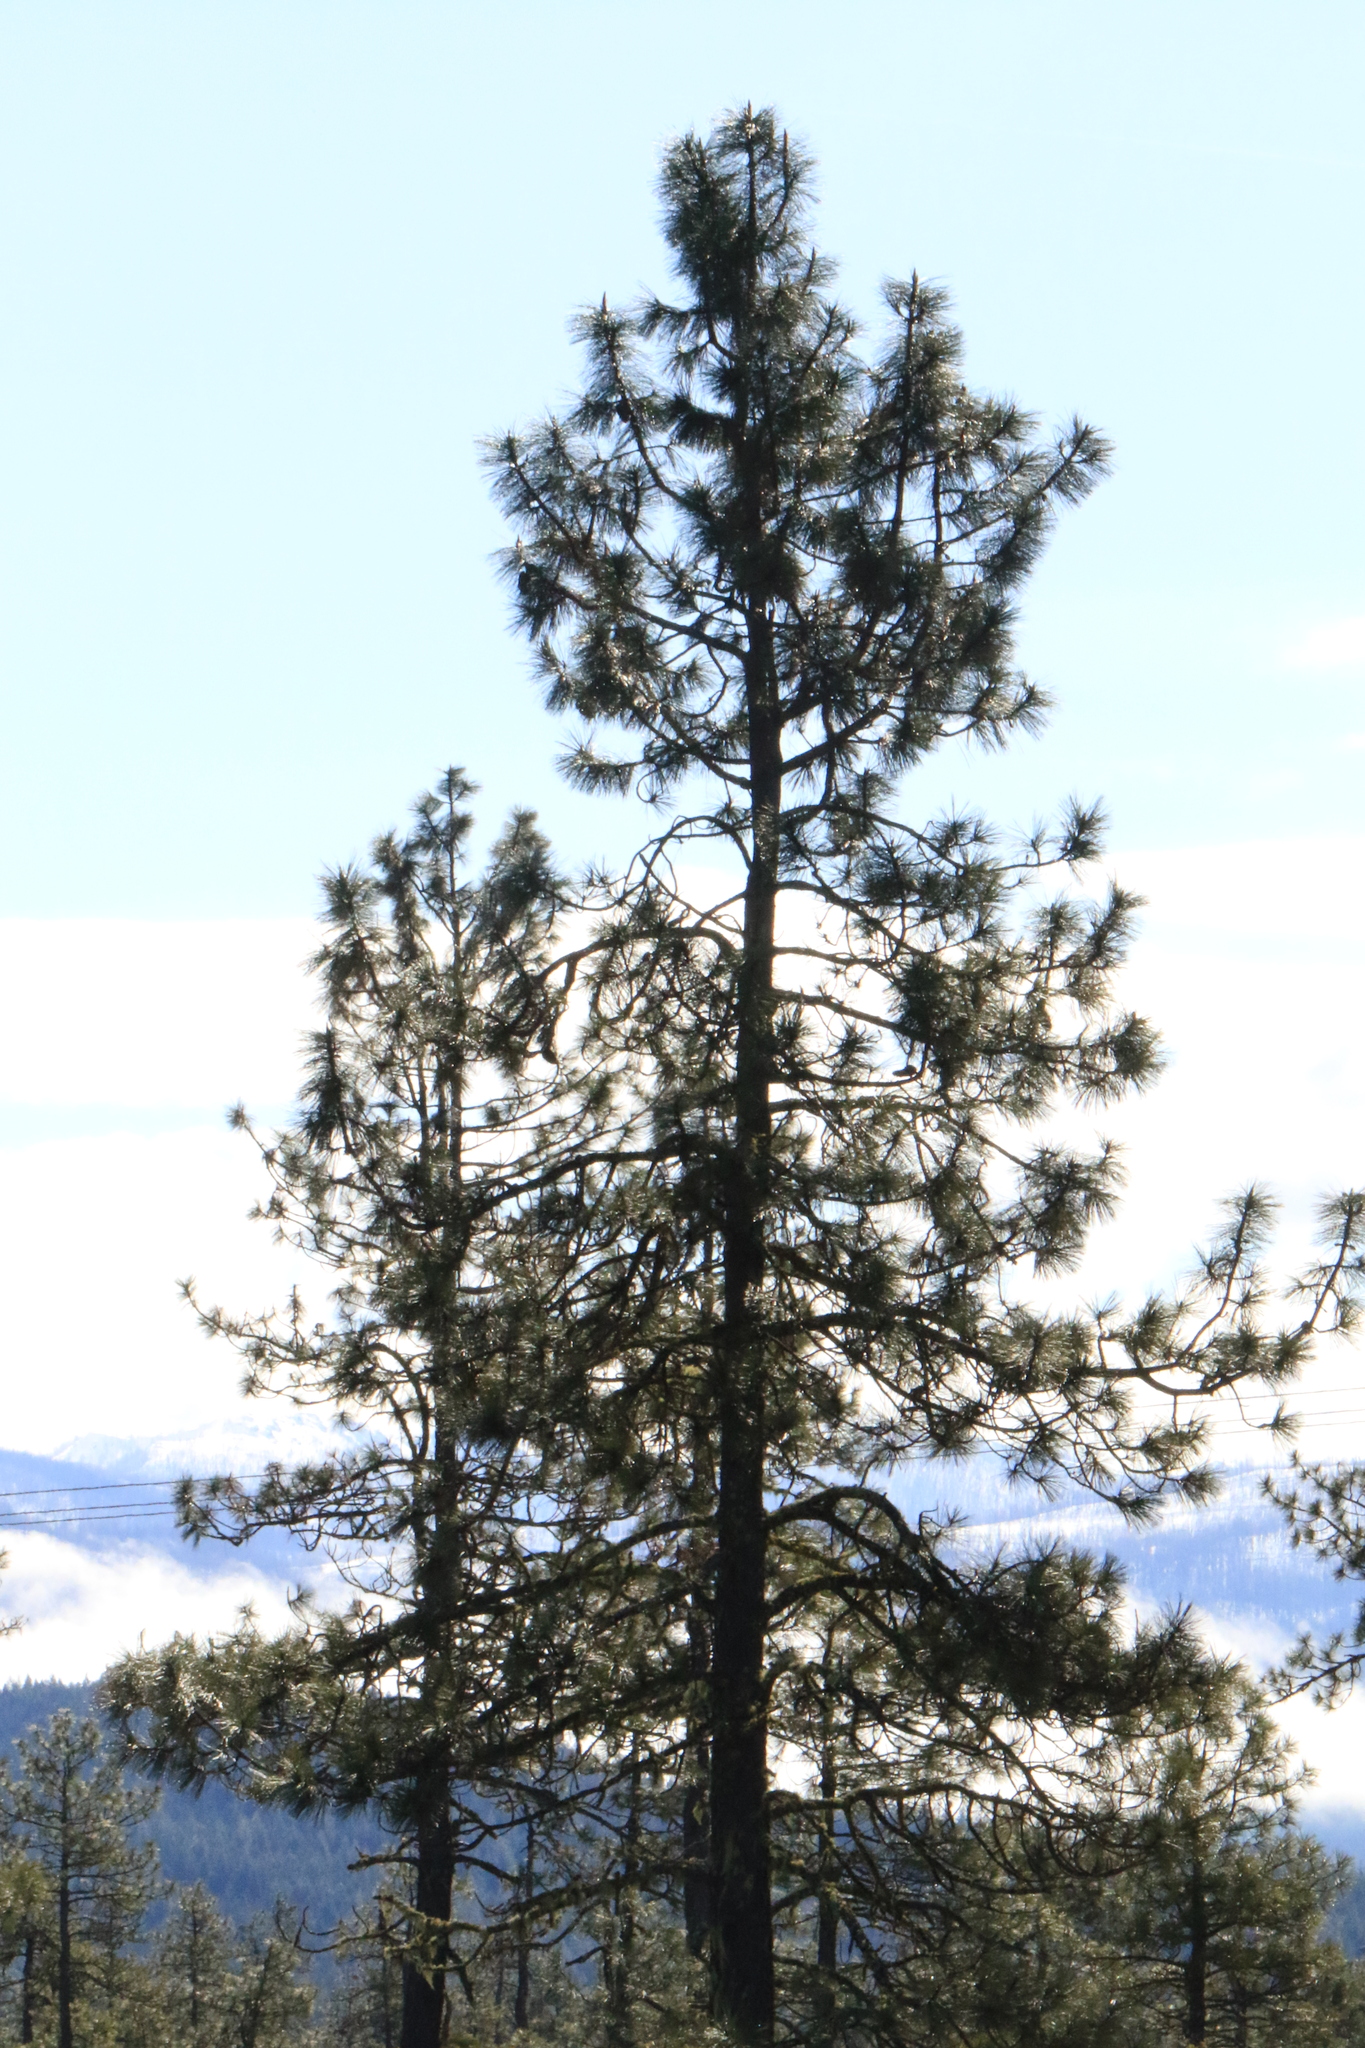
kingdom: Plantae
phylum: Tracheophyta
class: Pinopsida
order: Pinales
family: Pinaceae
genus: Pinus
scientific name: Pinus jeffreyi
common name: Jeffrey pine
